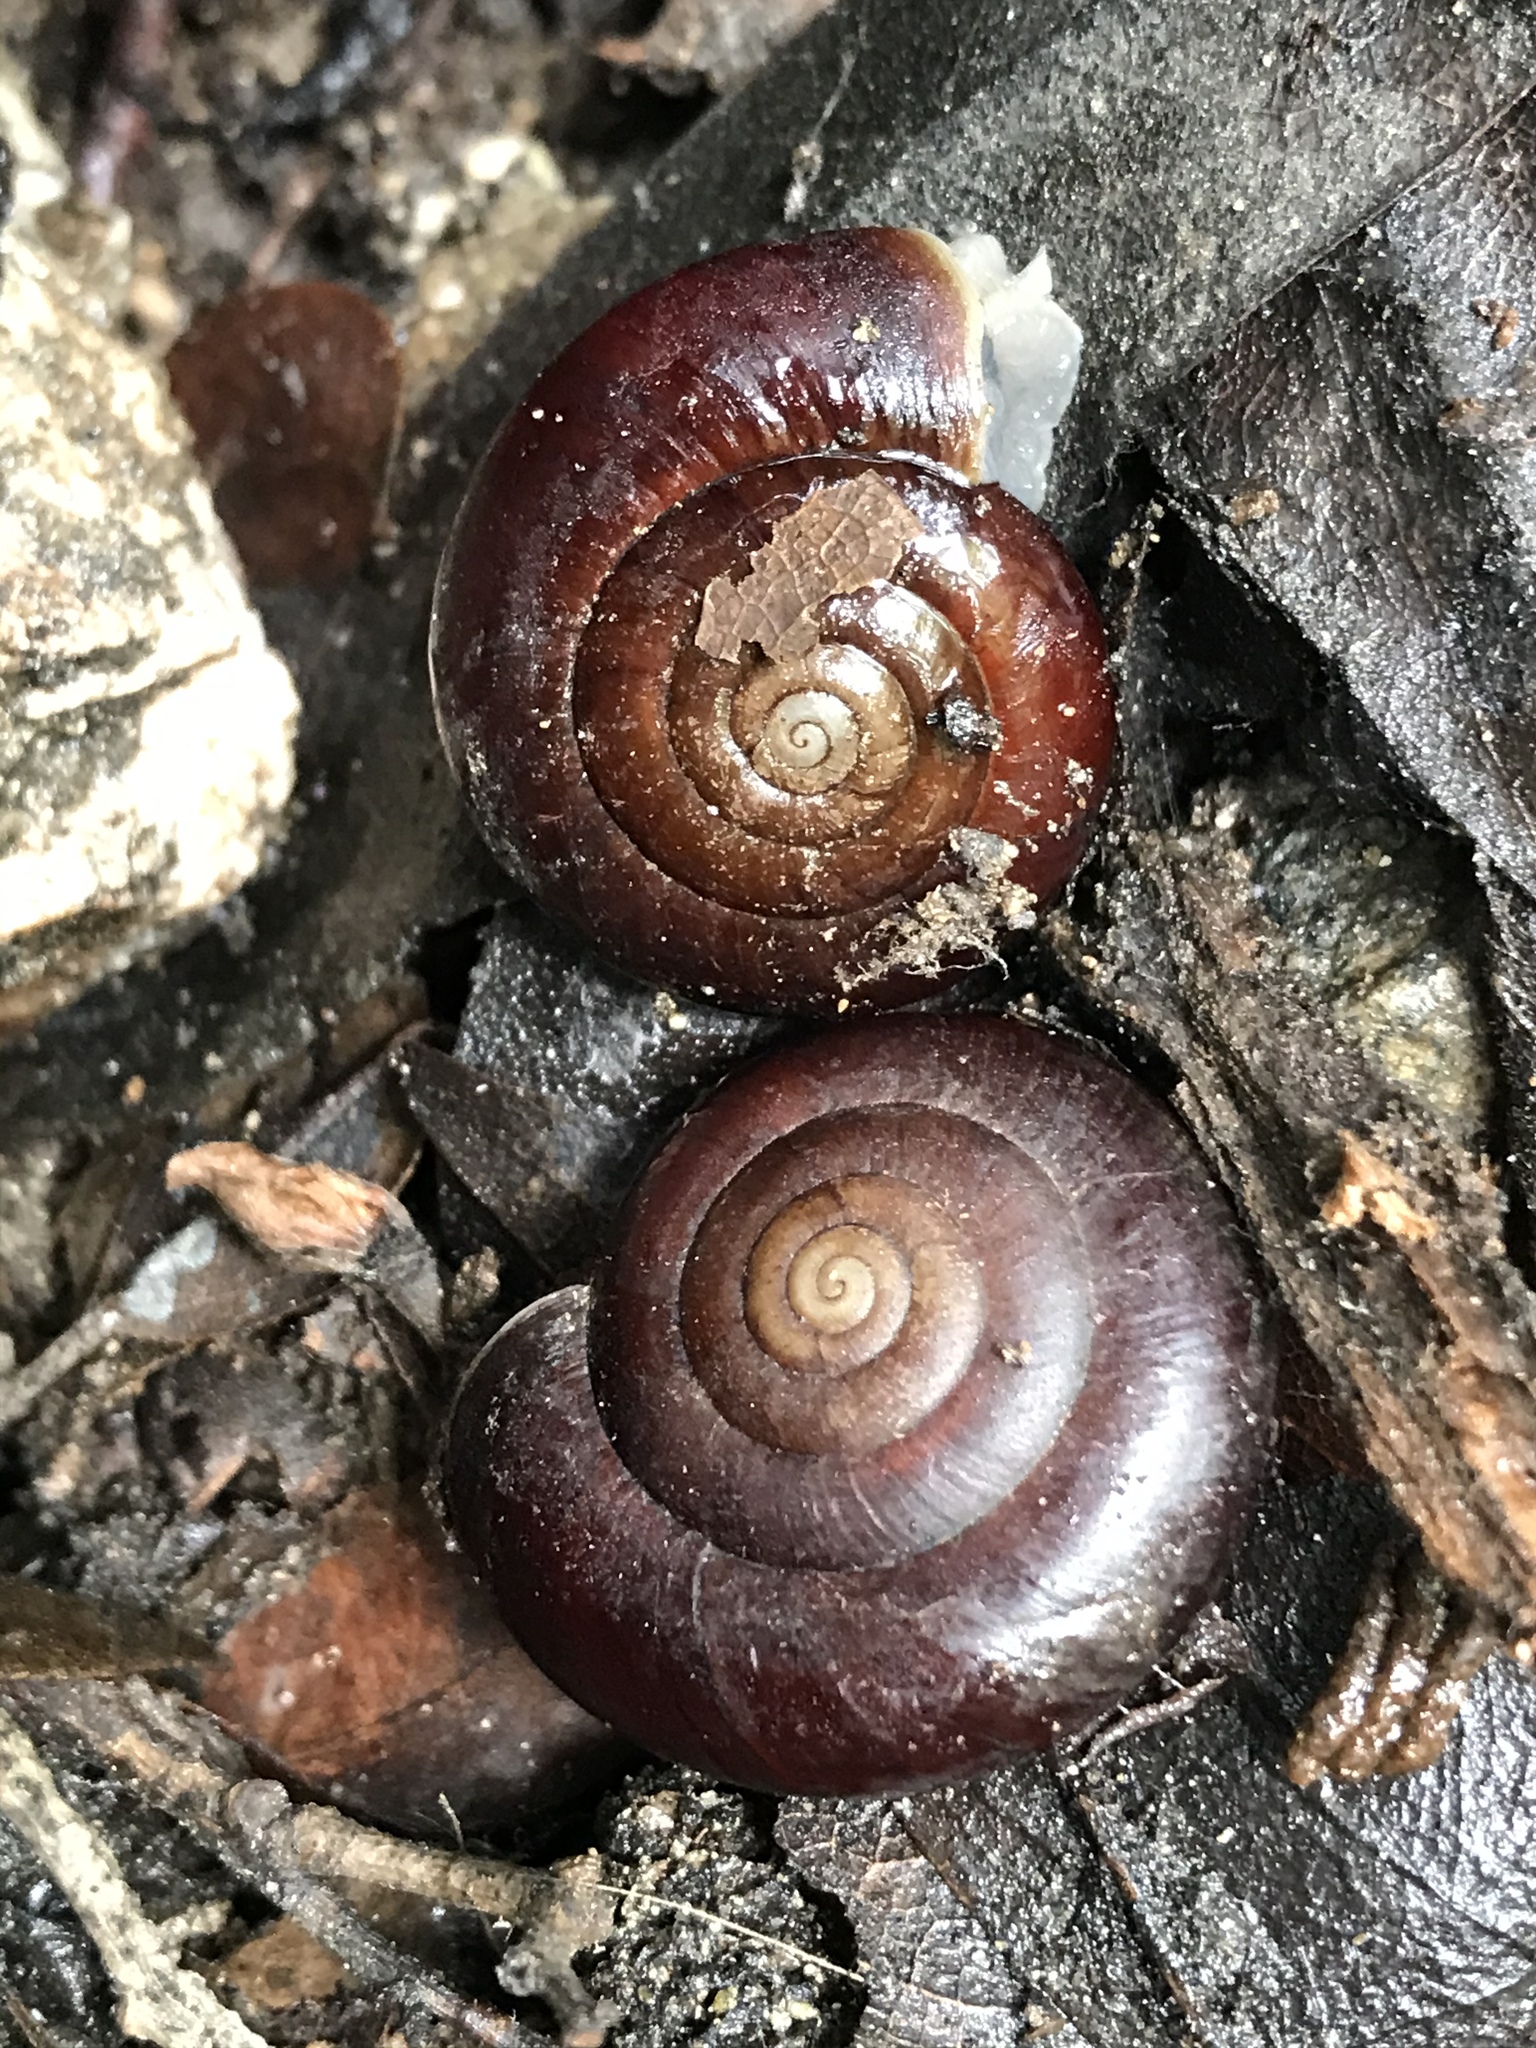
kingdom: Animalia
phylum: Mollusca
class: Gastropoda
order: Stylommatophora
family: Megomphicidae
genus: Glyptostoma
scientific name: Glyptostoma gabrielense
